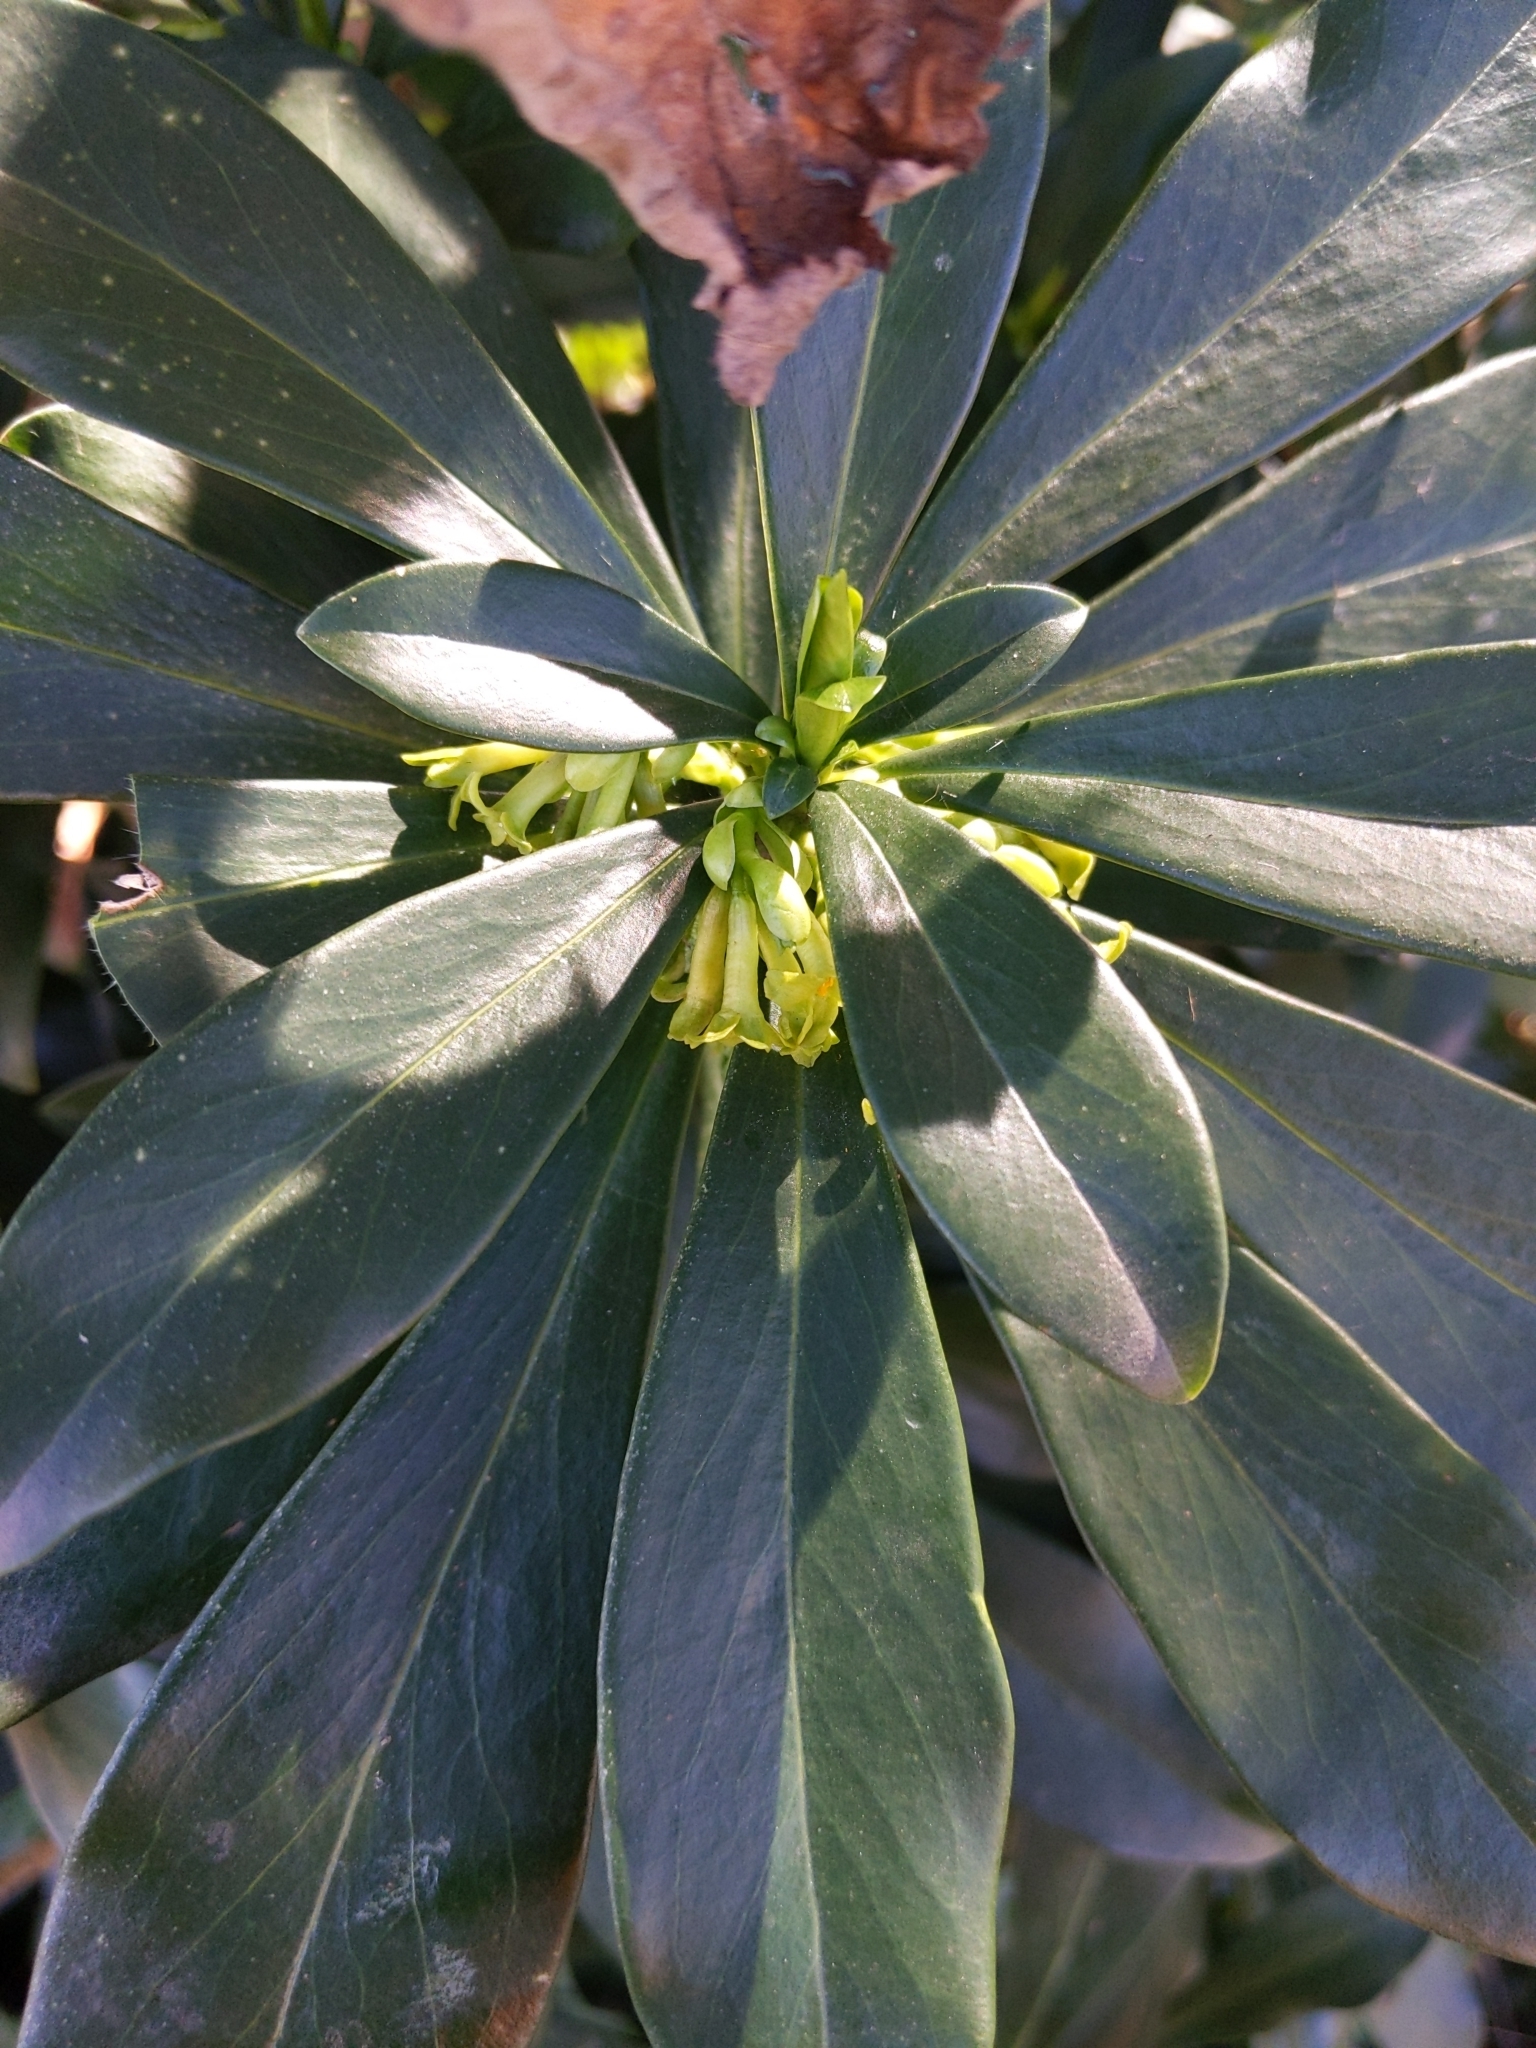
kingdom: Plantae
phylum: Tracheophyta
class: Magnoliopsida
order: Malvales
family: Thymelaeaceae
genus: Daphne
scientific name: Daphne laureola
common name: Spurge-laurel
